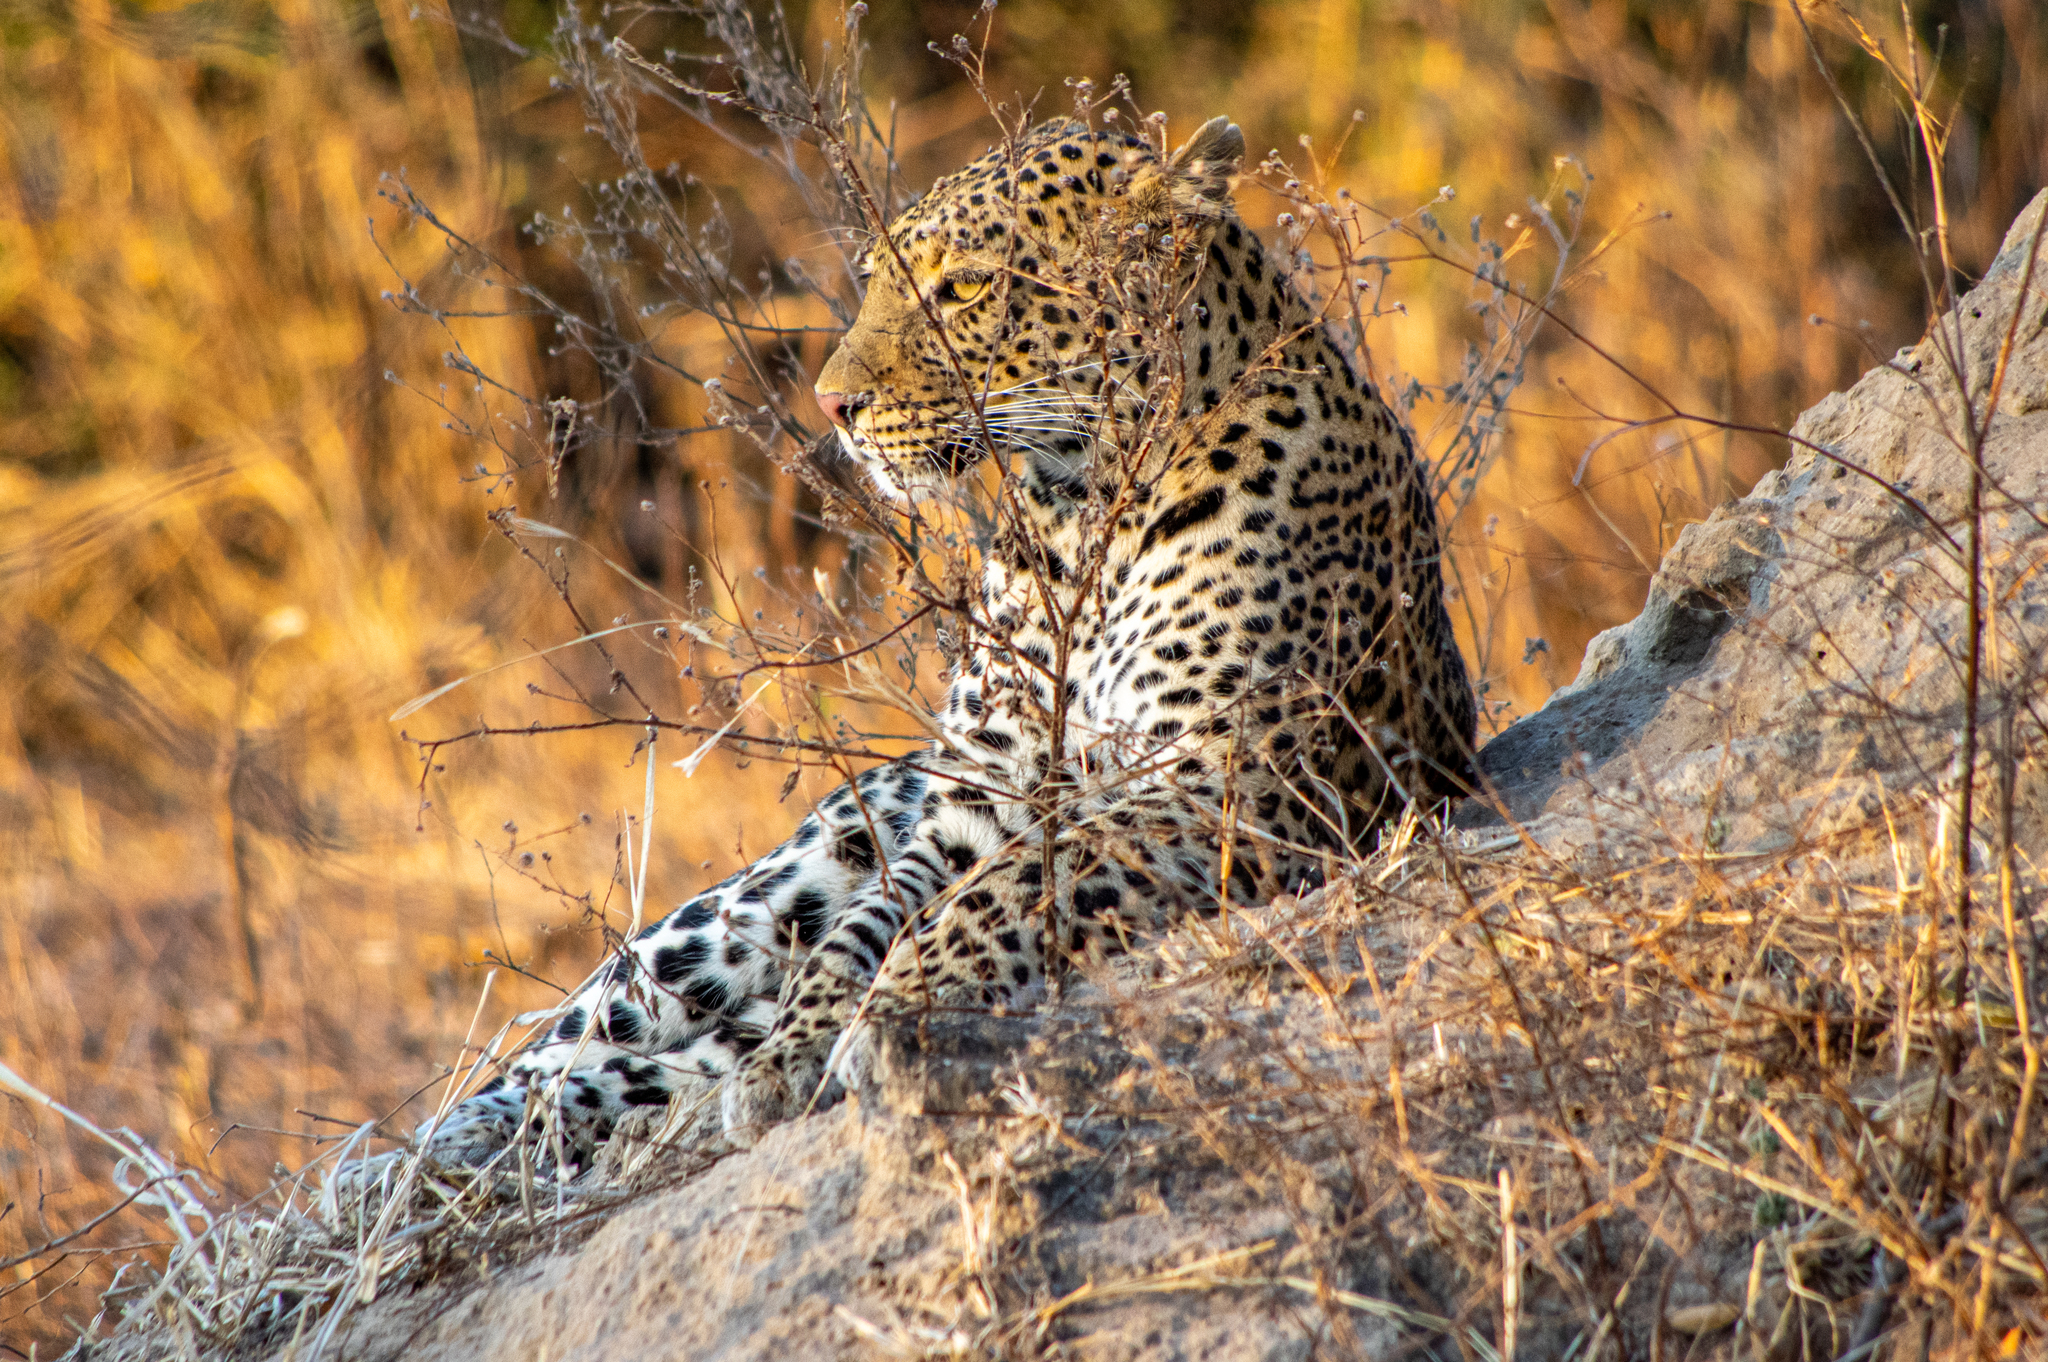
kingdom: Animalia
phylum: Chordata
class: Mammalia
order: Carnivora
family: Felidae
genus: Panthera
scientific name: Panthera pardus
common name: Leopard
